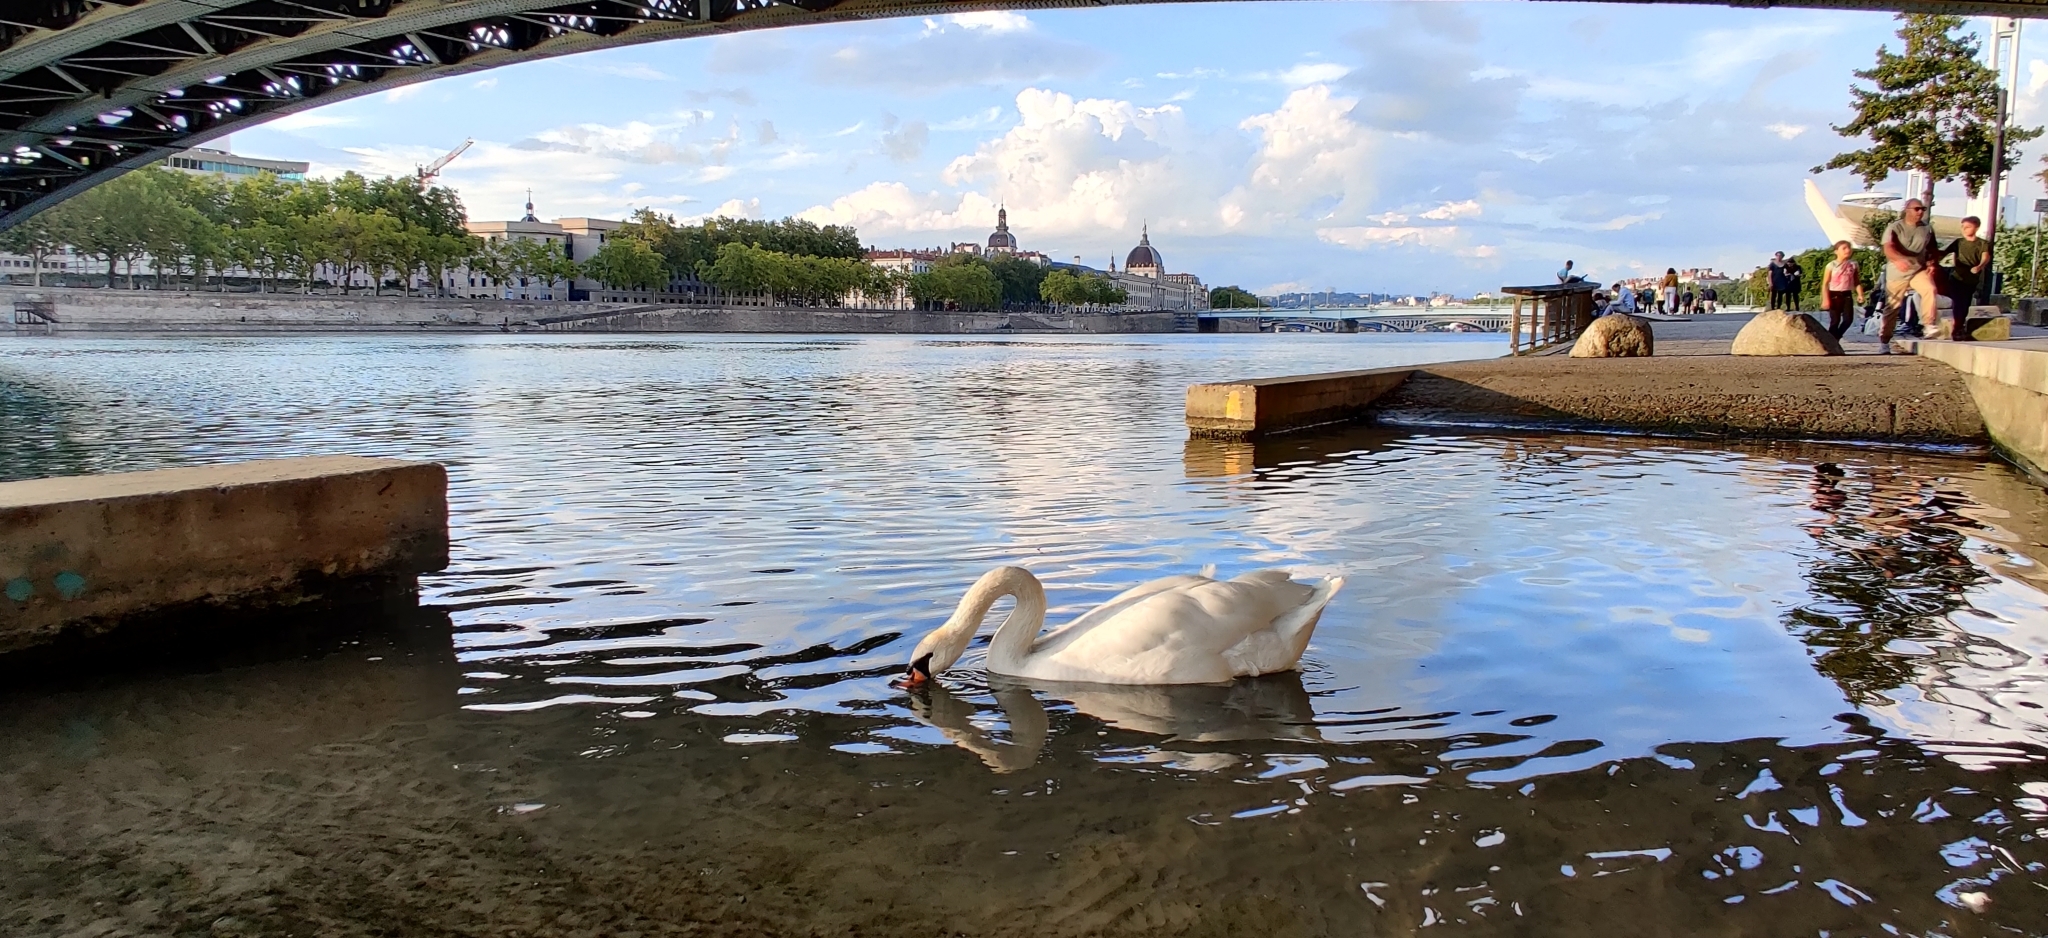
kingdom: Animalia
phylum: Chordata
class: Aves
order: Anseriformes
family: Anatidae
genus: Cygnus
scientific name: Cygnus olor
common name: Mute swan
